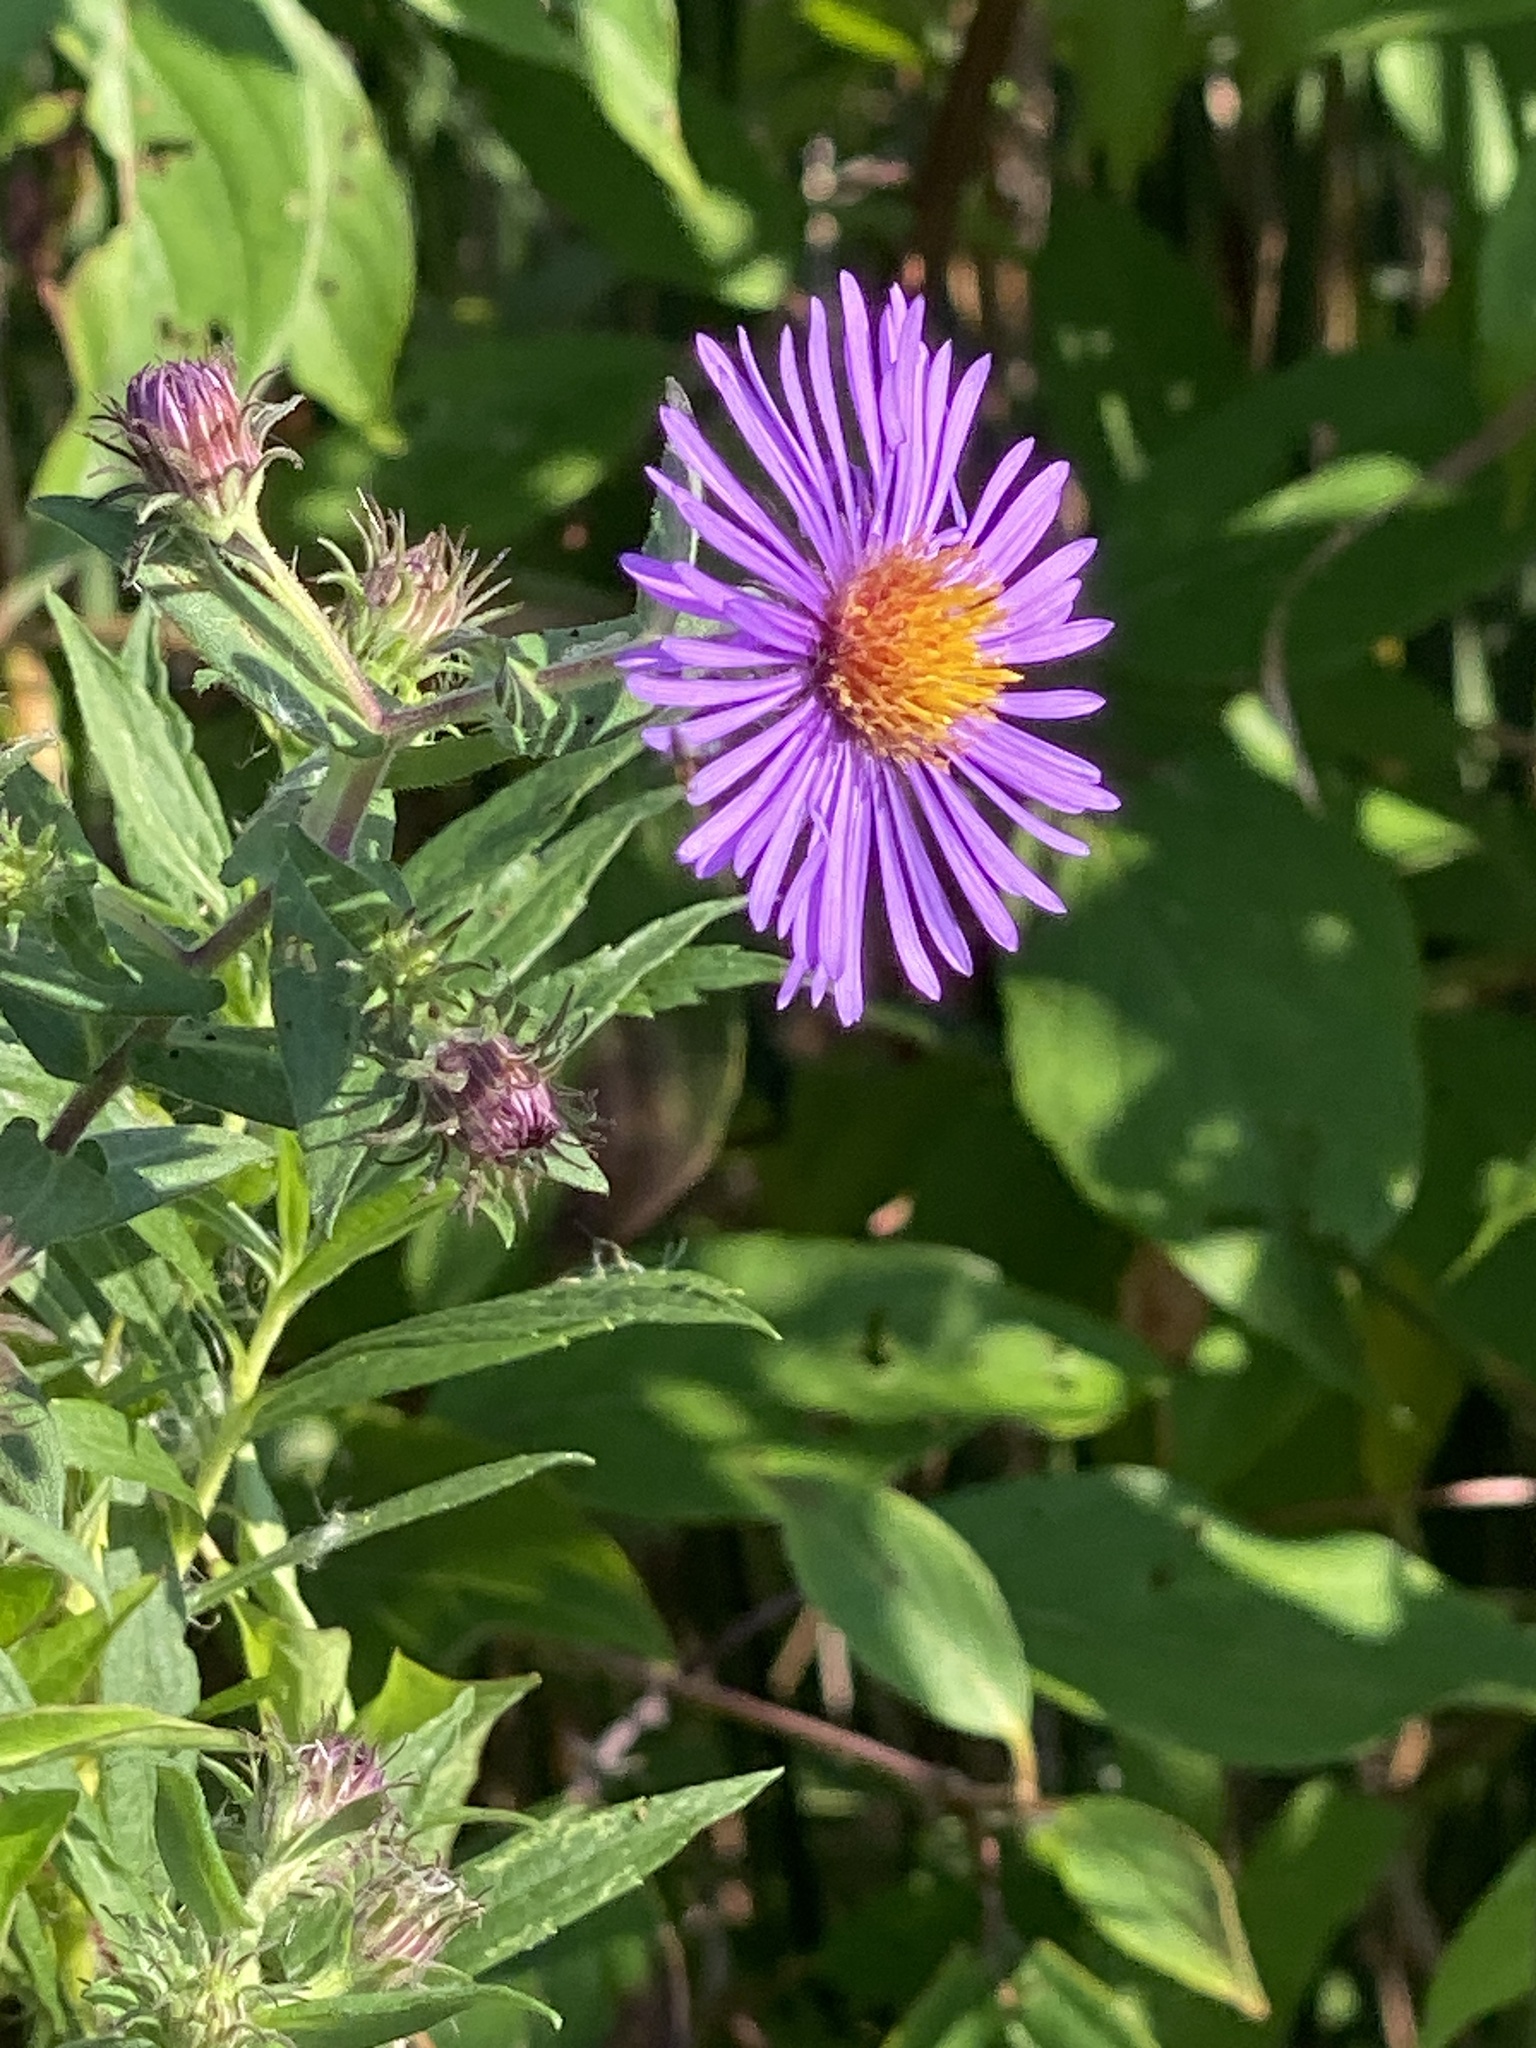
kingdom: Plantae
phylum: Tracheophyta
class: Magnoliopsida
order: Asterales
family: Asteraceae
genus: Symphyotrichum
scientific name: Symphyotrichum novae-angliae
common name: Michaelmas daisy
